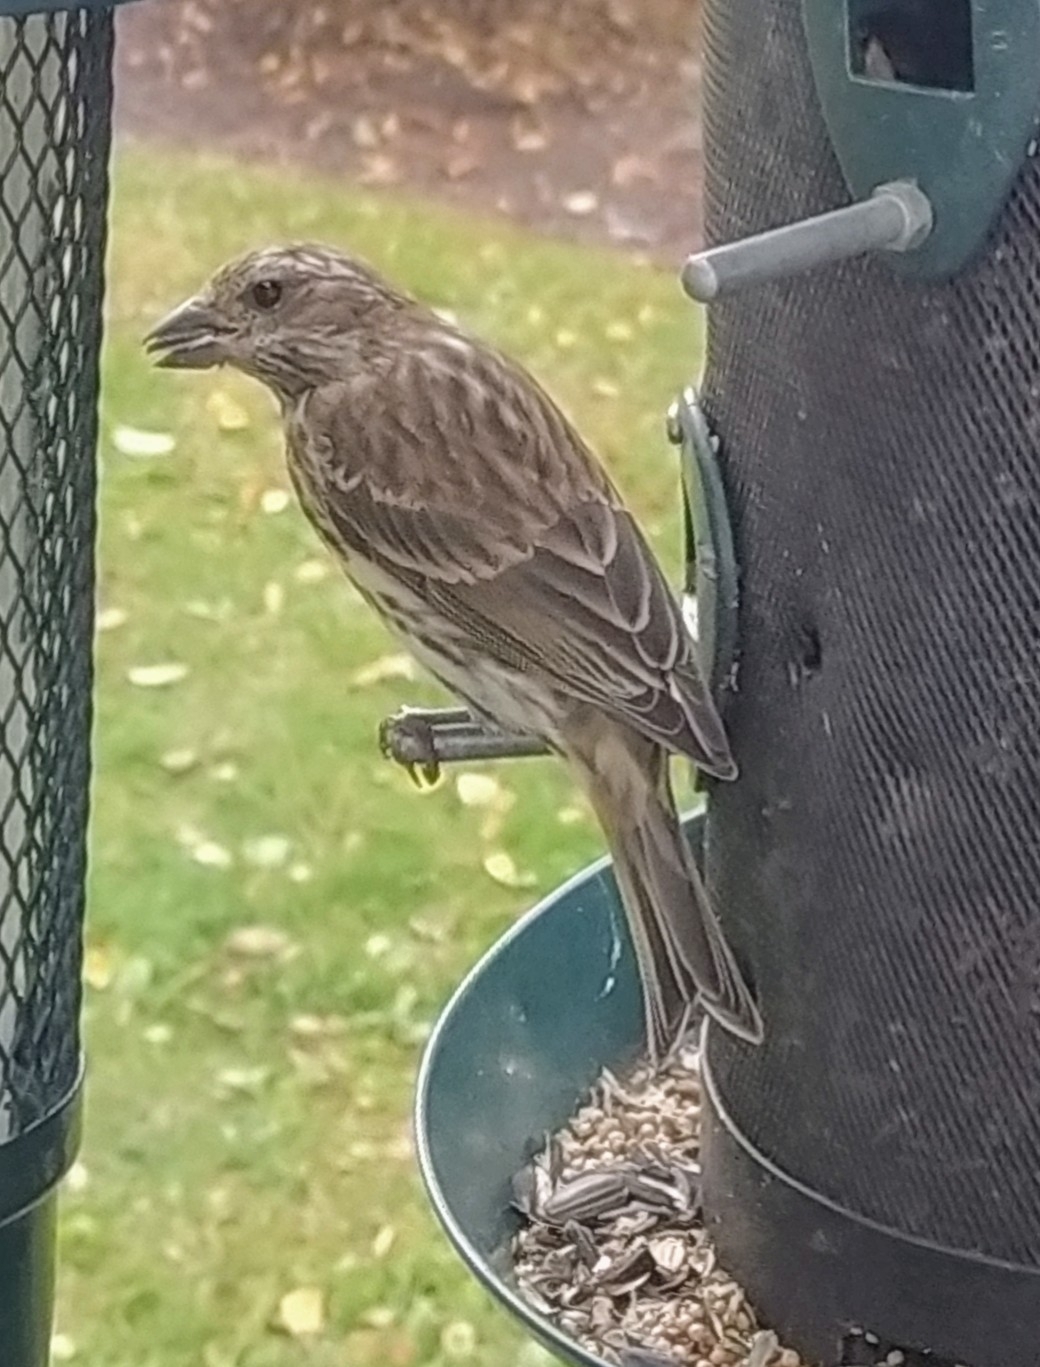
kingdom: Animalia
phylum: Chordata
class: Aves
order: Passeriformes
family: Fringillidae
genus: Haemorhous
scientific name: Haemorhous purpureus
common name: Purple finch
